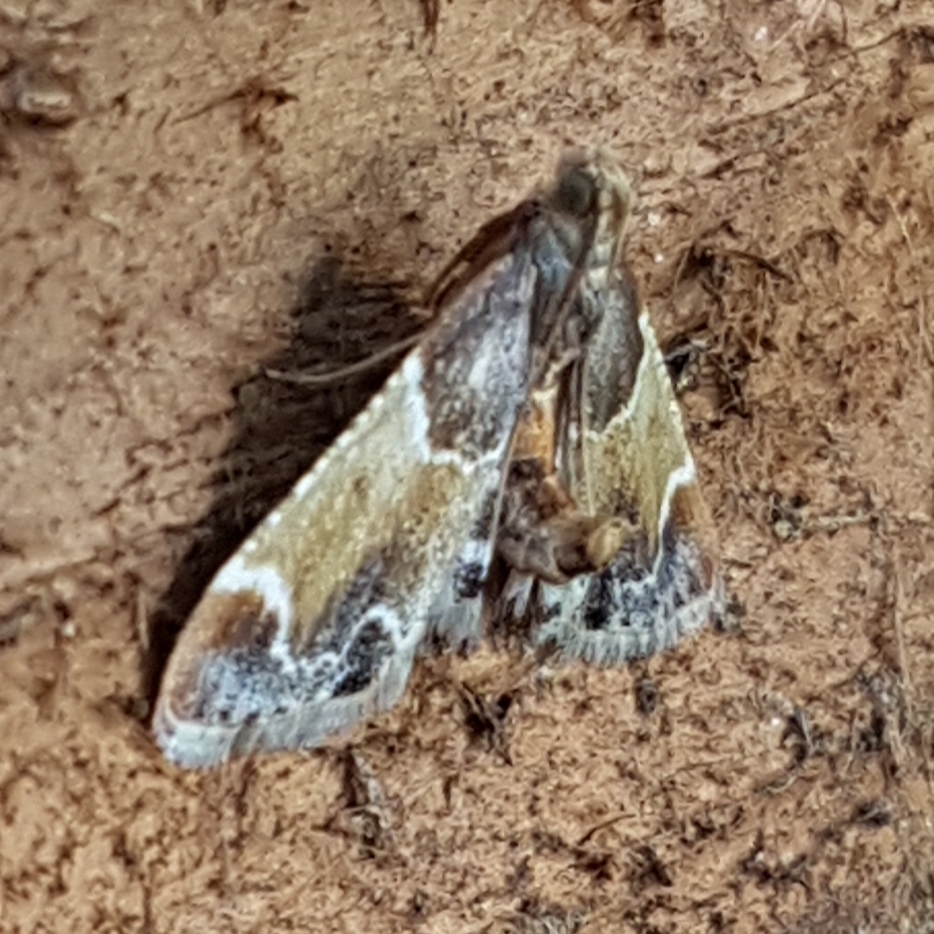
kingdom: Animalia
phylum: Arthropoda
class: Insecta
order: Lepidoptera
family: Pyralidae
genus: Pyralis
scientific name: Pyralis farinalis
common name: Meal moth
